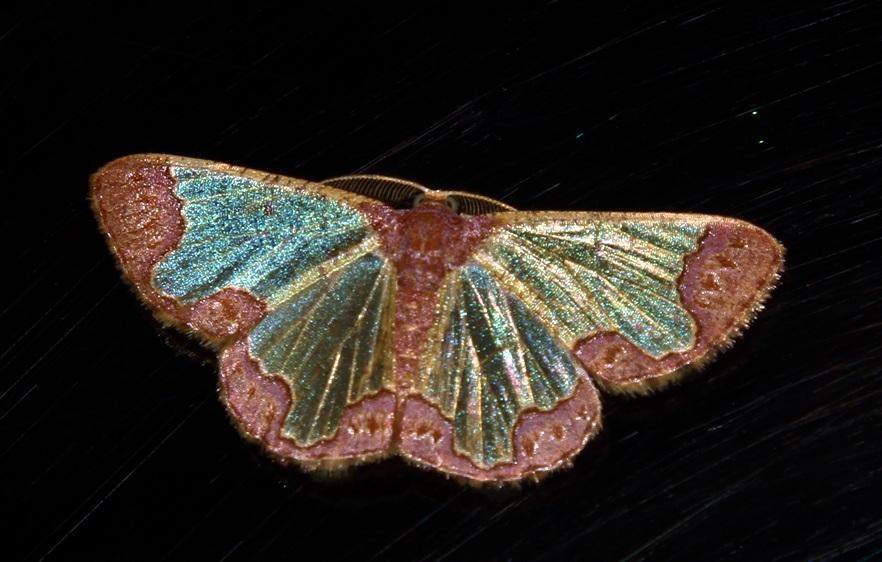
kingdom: Animalia
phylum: Arthropoda
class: Insecta
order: Lepidoptera
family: Geometridae
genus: Zamarada
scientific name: Zamarada transvisaria
